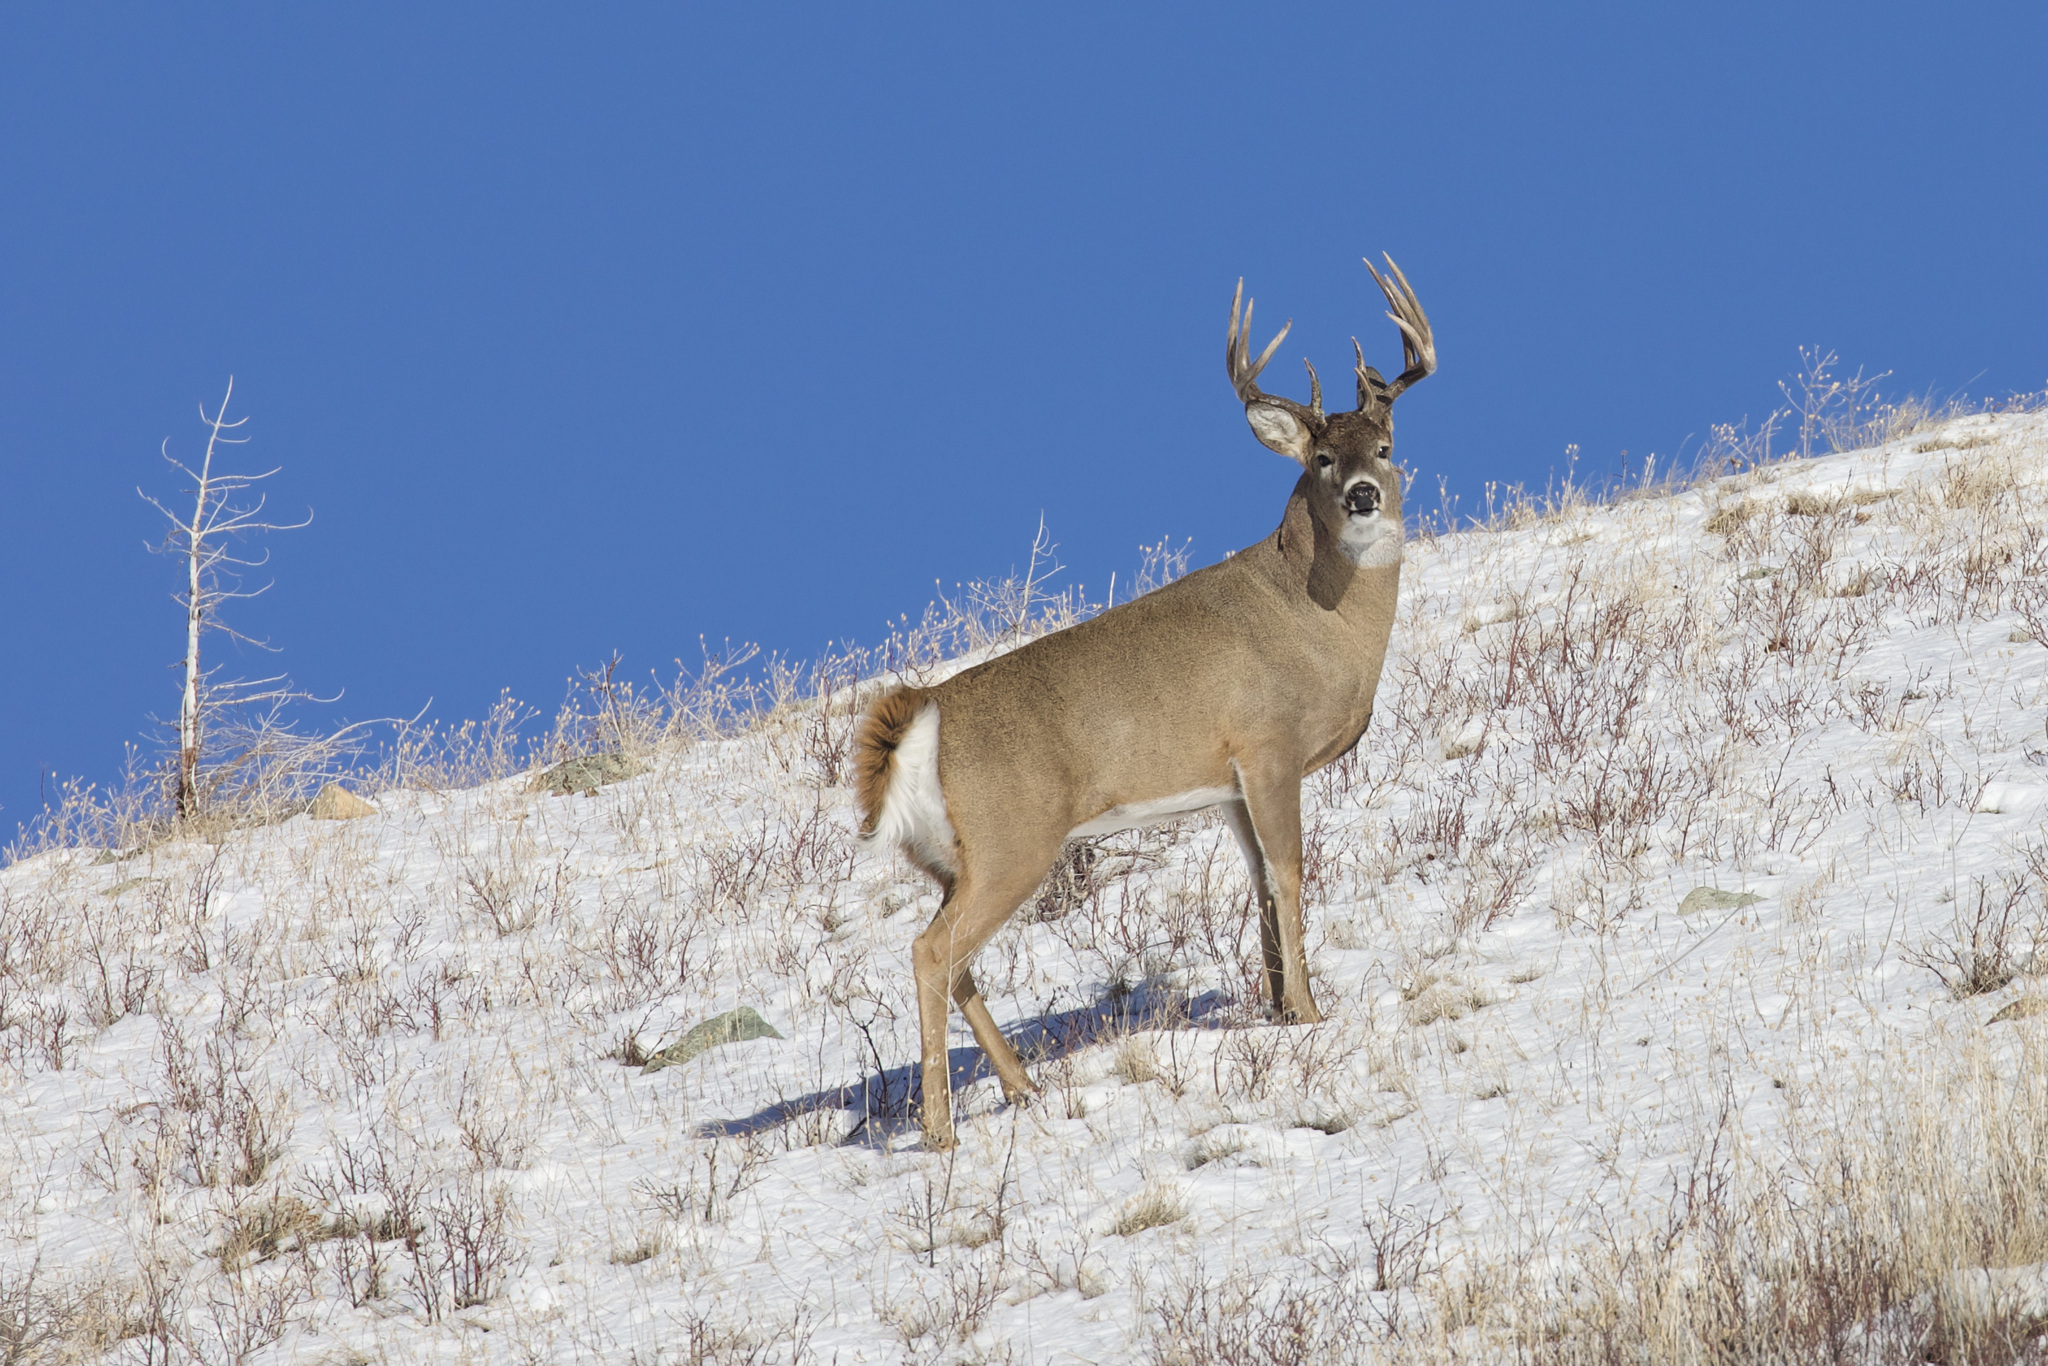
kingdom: Animalia
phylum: Chordata
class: Mammalia
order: Artiodactyla
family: Cervidae
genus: Odocoileus
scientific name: Odocoileus virginianus
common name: White-tailed deer
